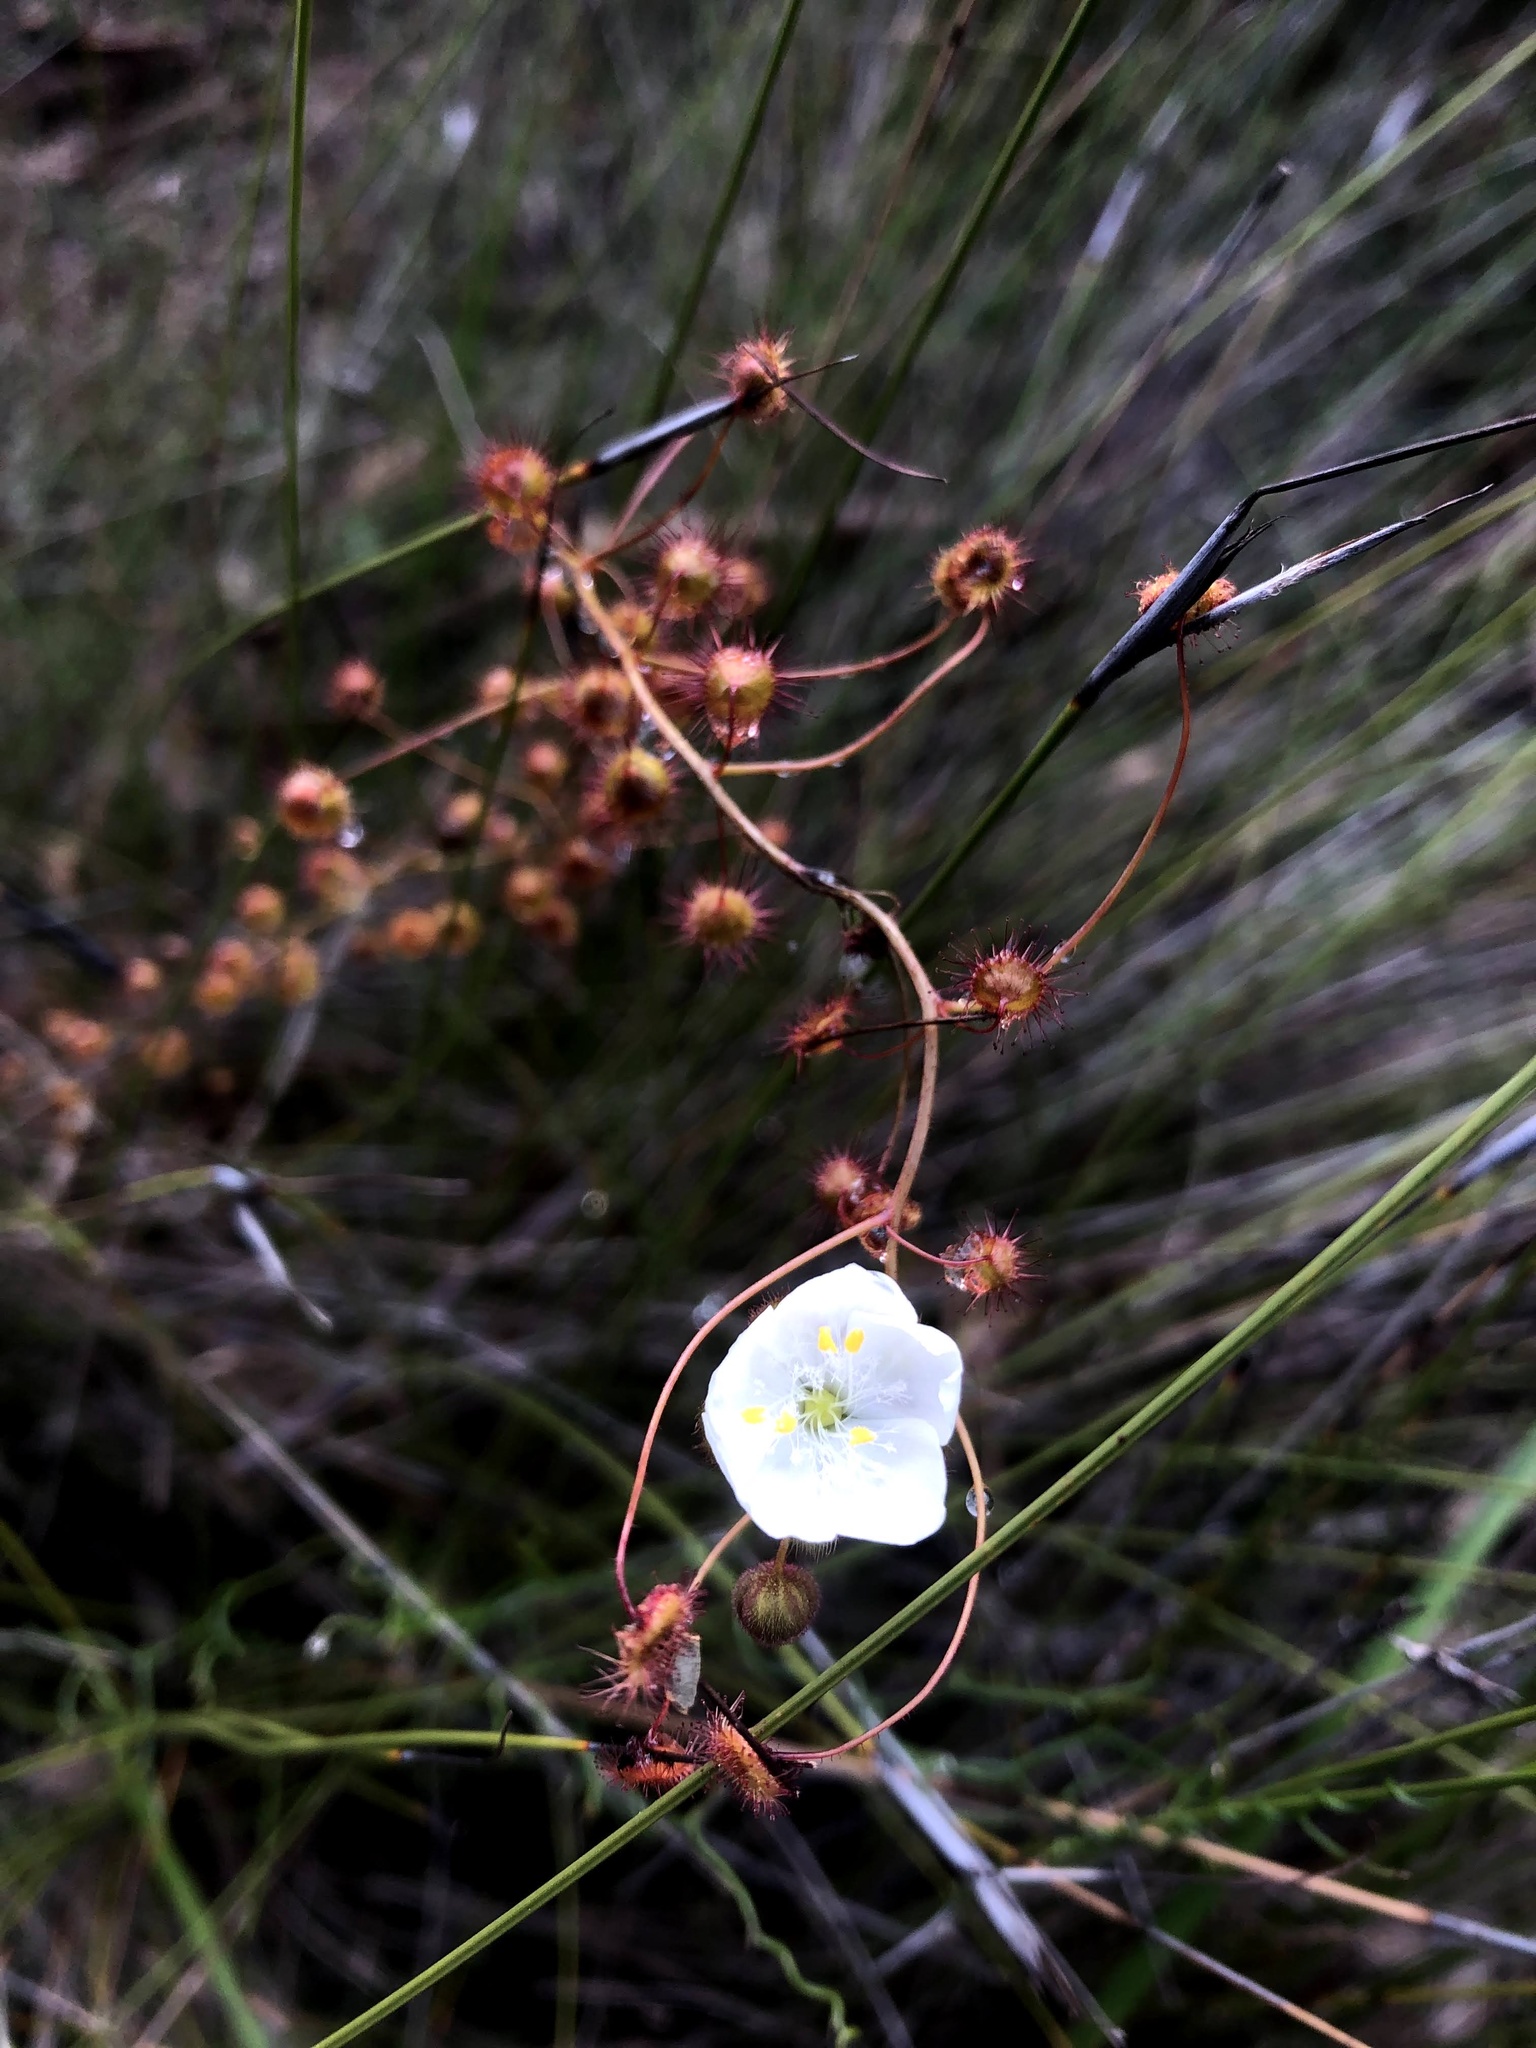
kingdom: Plantae
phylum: Tracheophyta
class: Magnoliopsida
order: Caryophyllales
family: Droseraceae
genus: Drosera
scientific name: Drosera planchonii
